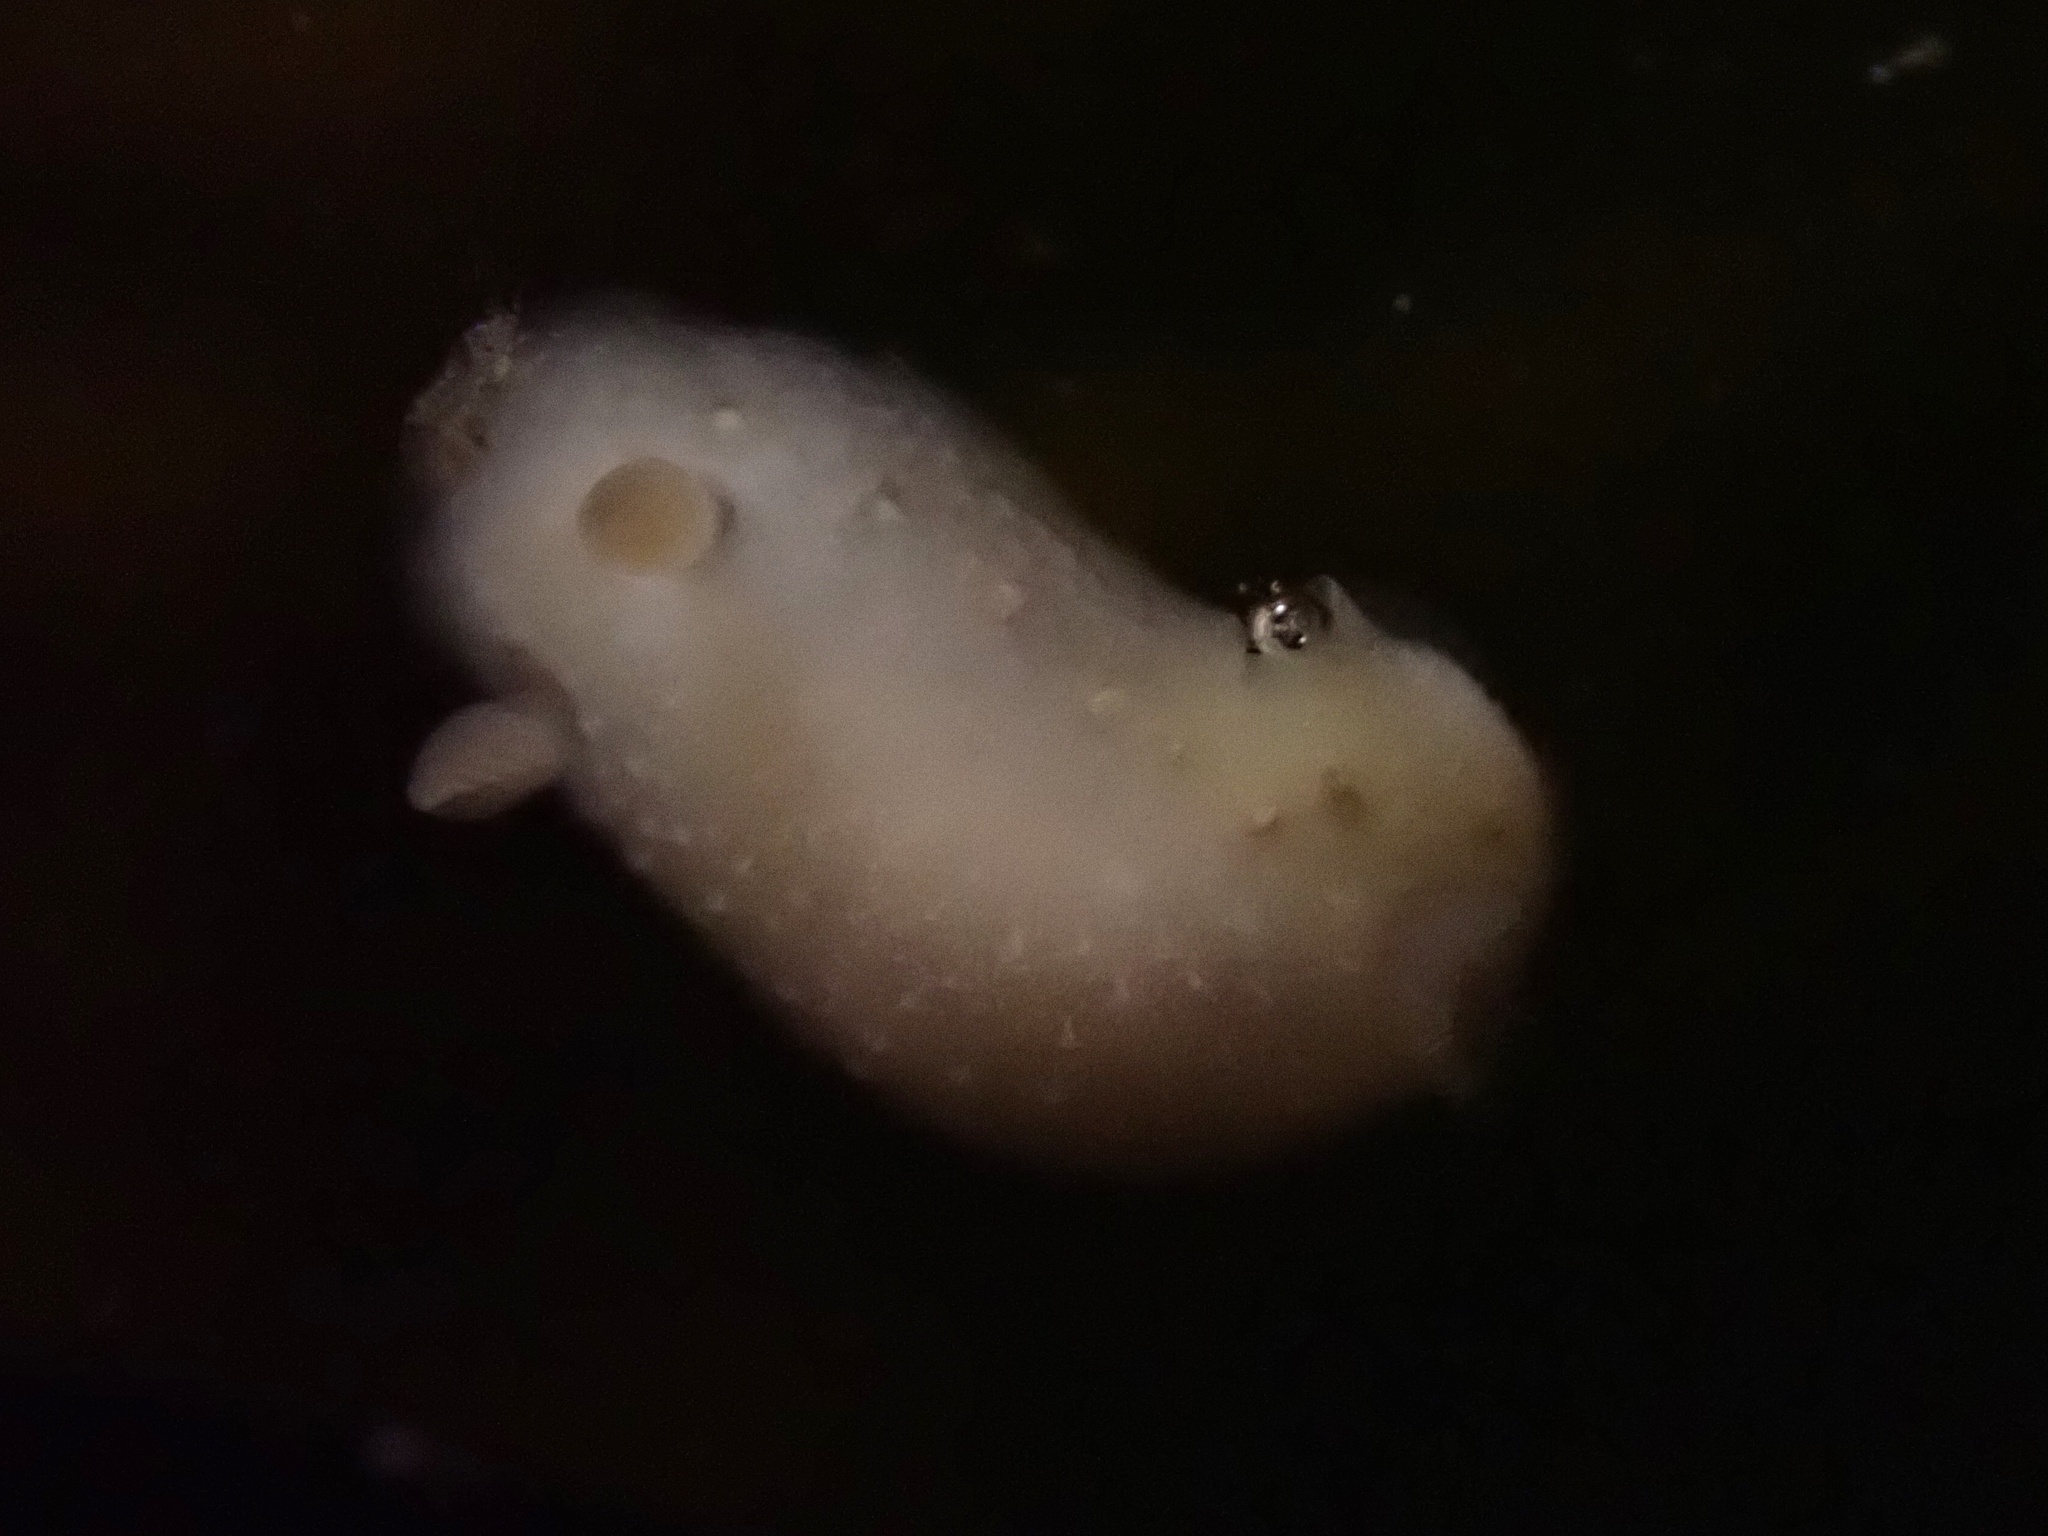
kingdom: Animalia
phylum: Mollusca
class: Gastropoda
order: Nudibranchia
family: Cadlinidae
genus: Cadlina
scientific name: Cadlina sparsa
